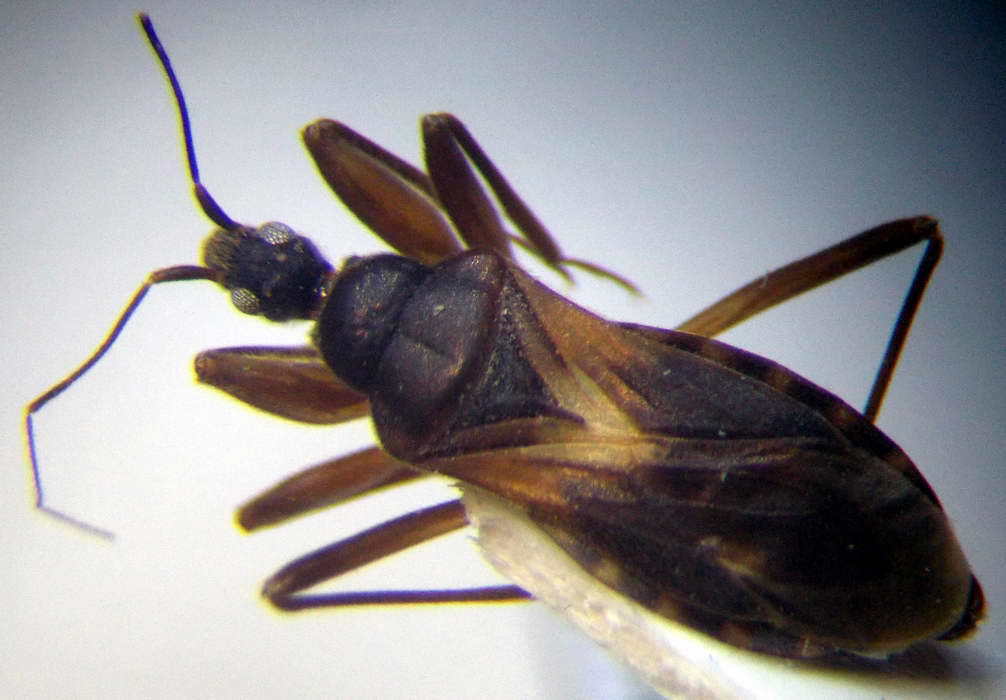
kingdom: Animalia
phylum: Arthropoda
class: Insecta
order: Hemiptera
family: Reduviidae
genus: Pasira
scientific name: Pasira basiptera
